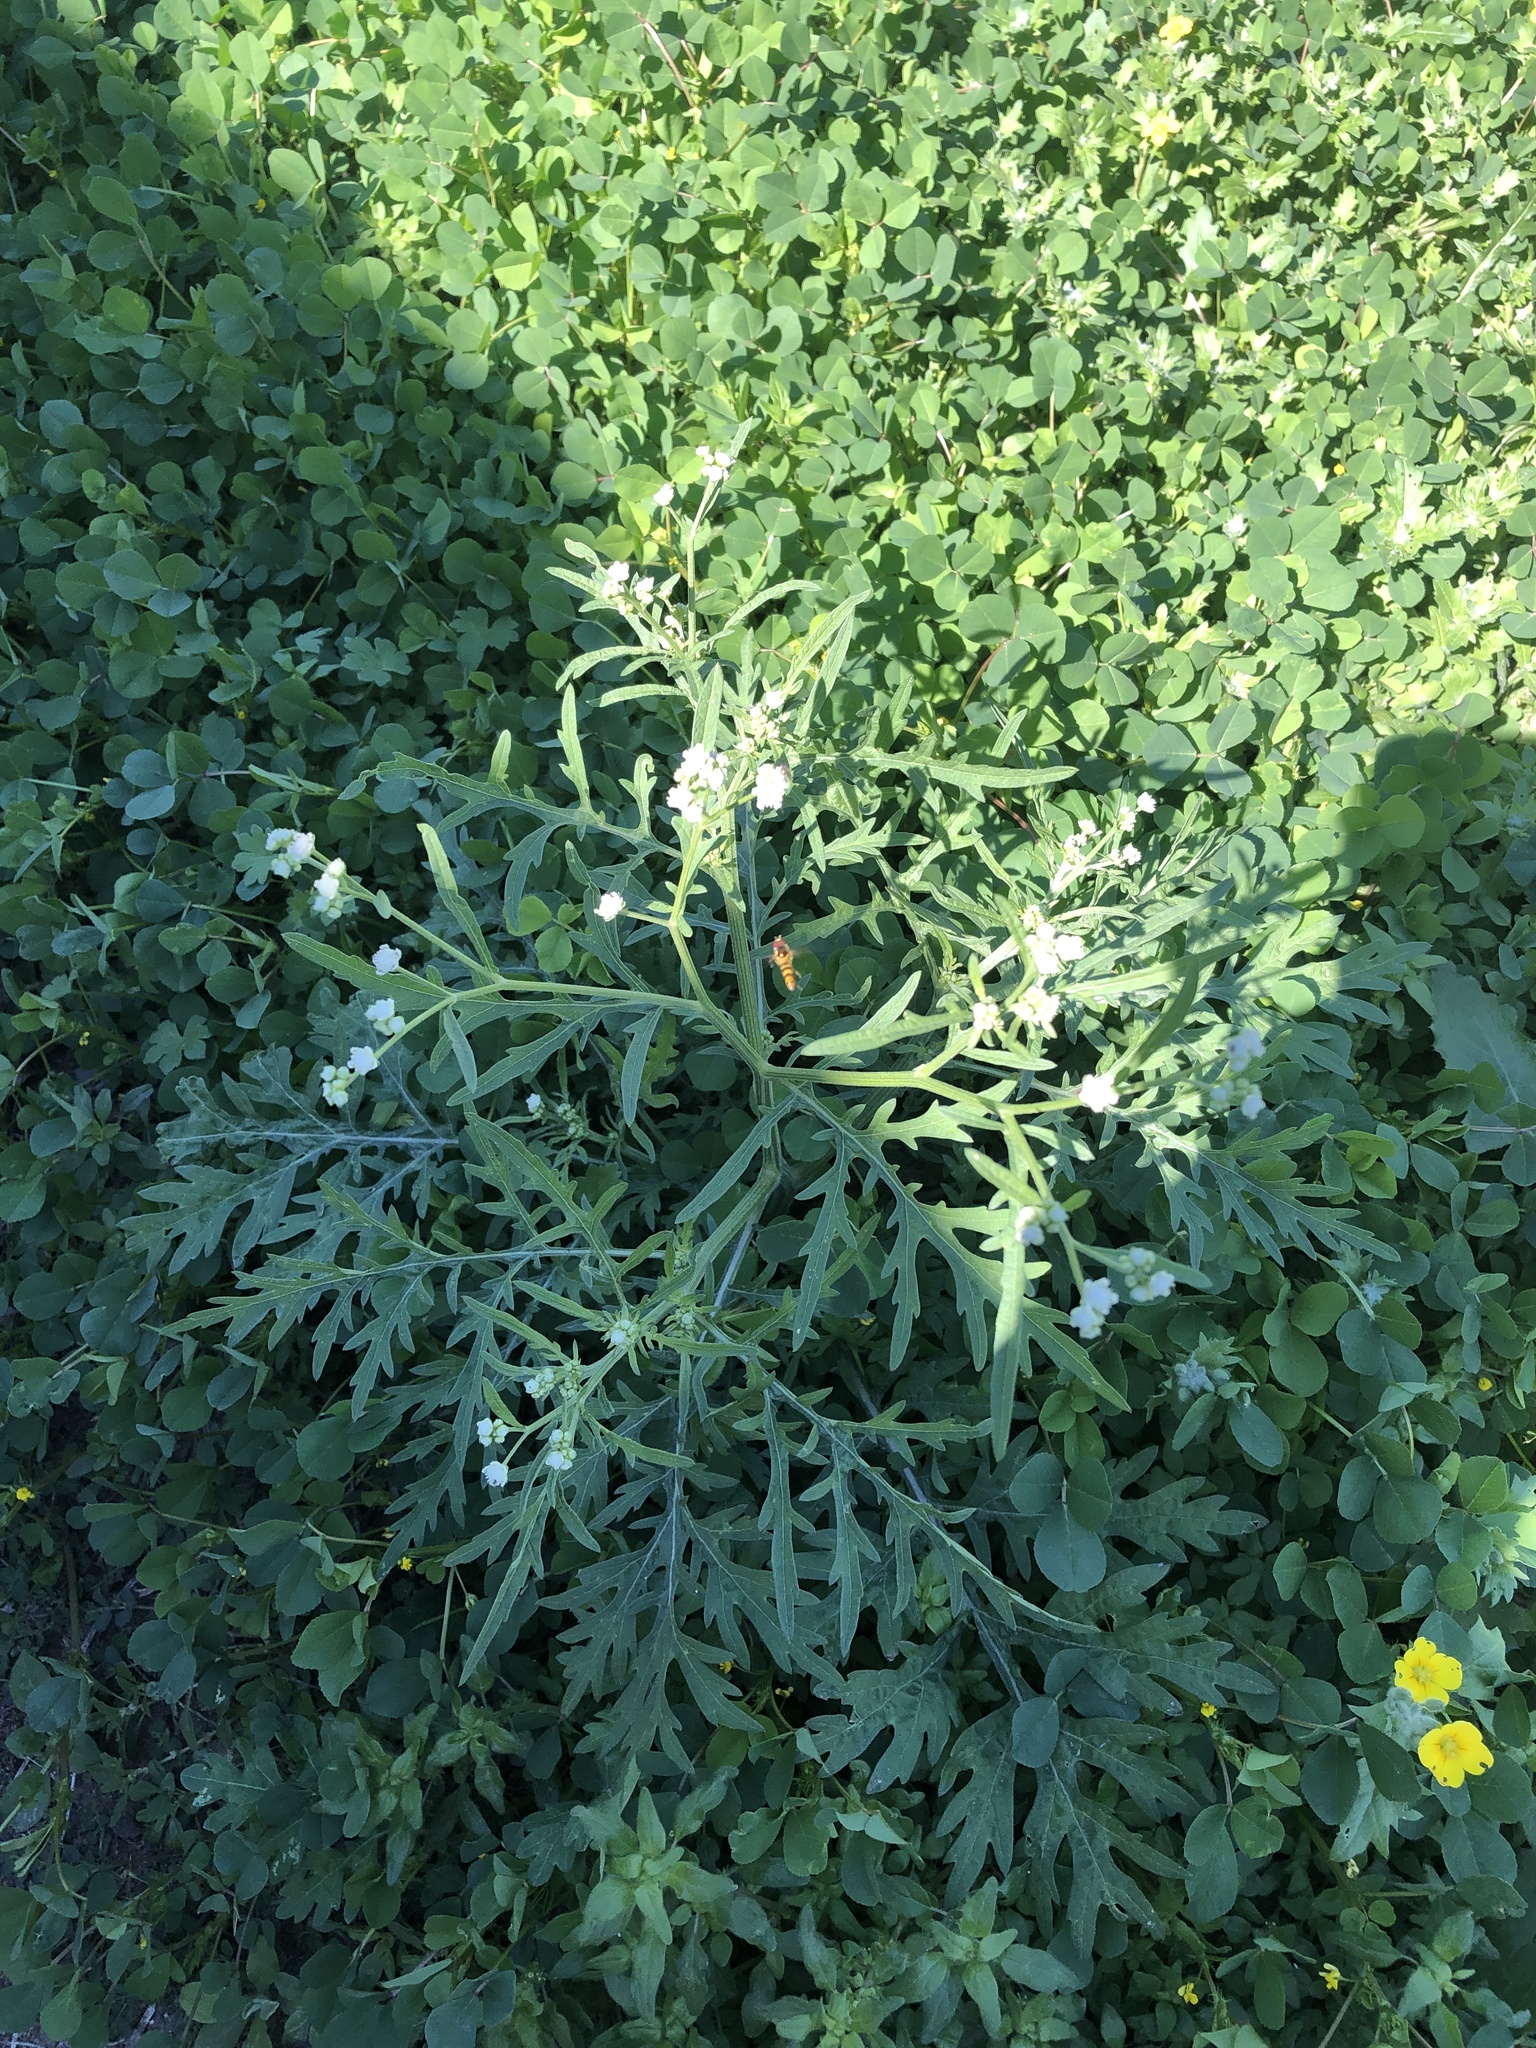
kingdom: Plantae
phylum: Tracheophyta
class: Magnoliopsida
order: Asterales
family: Asteraceae
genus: Parthenium
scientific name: Parthenium hysterophorus
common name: Santa maria feverfew
